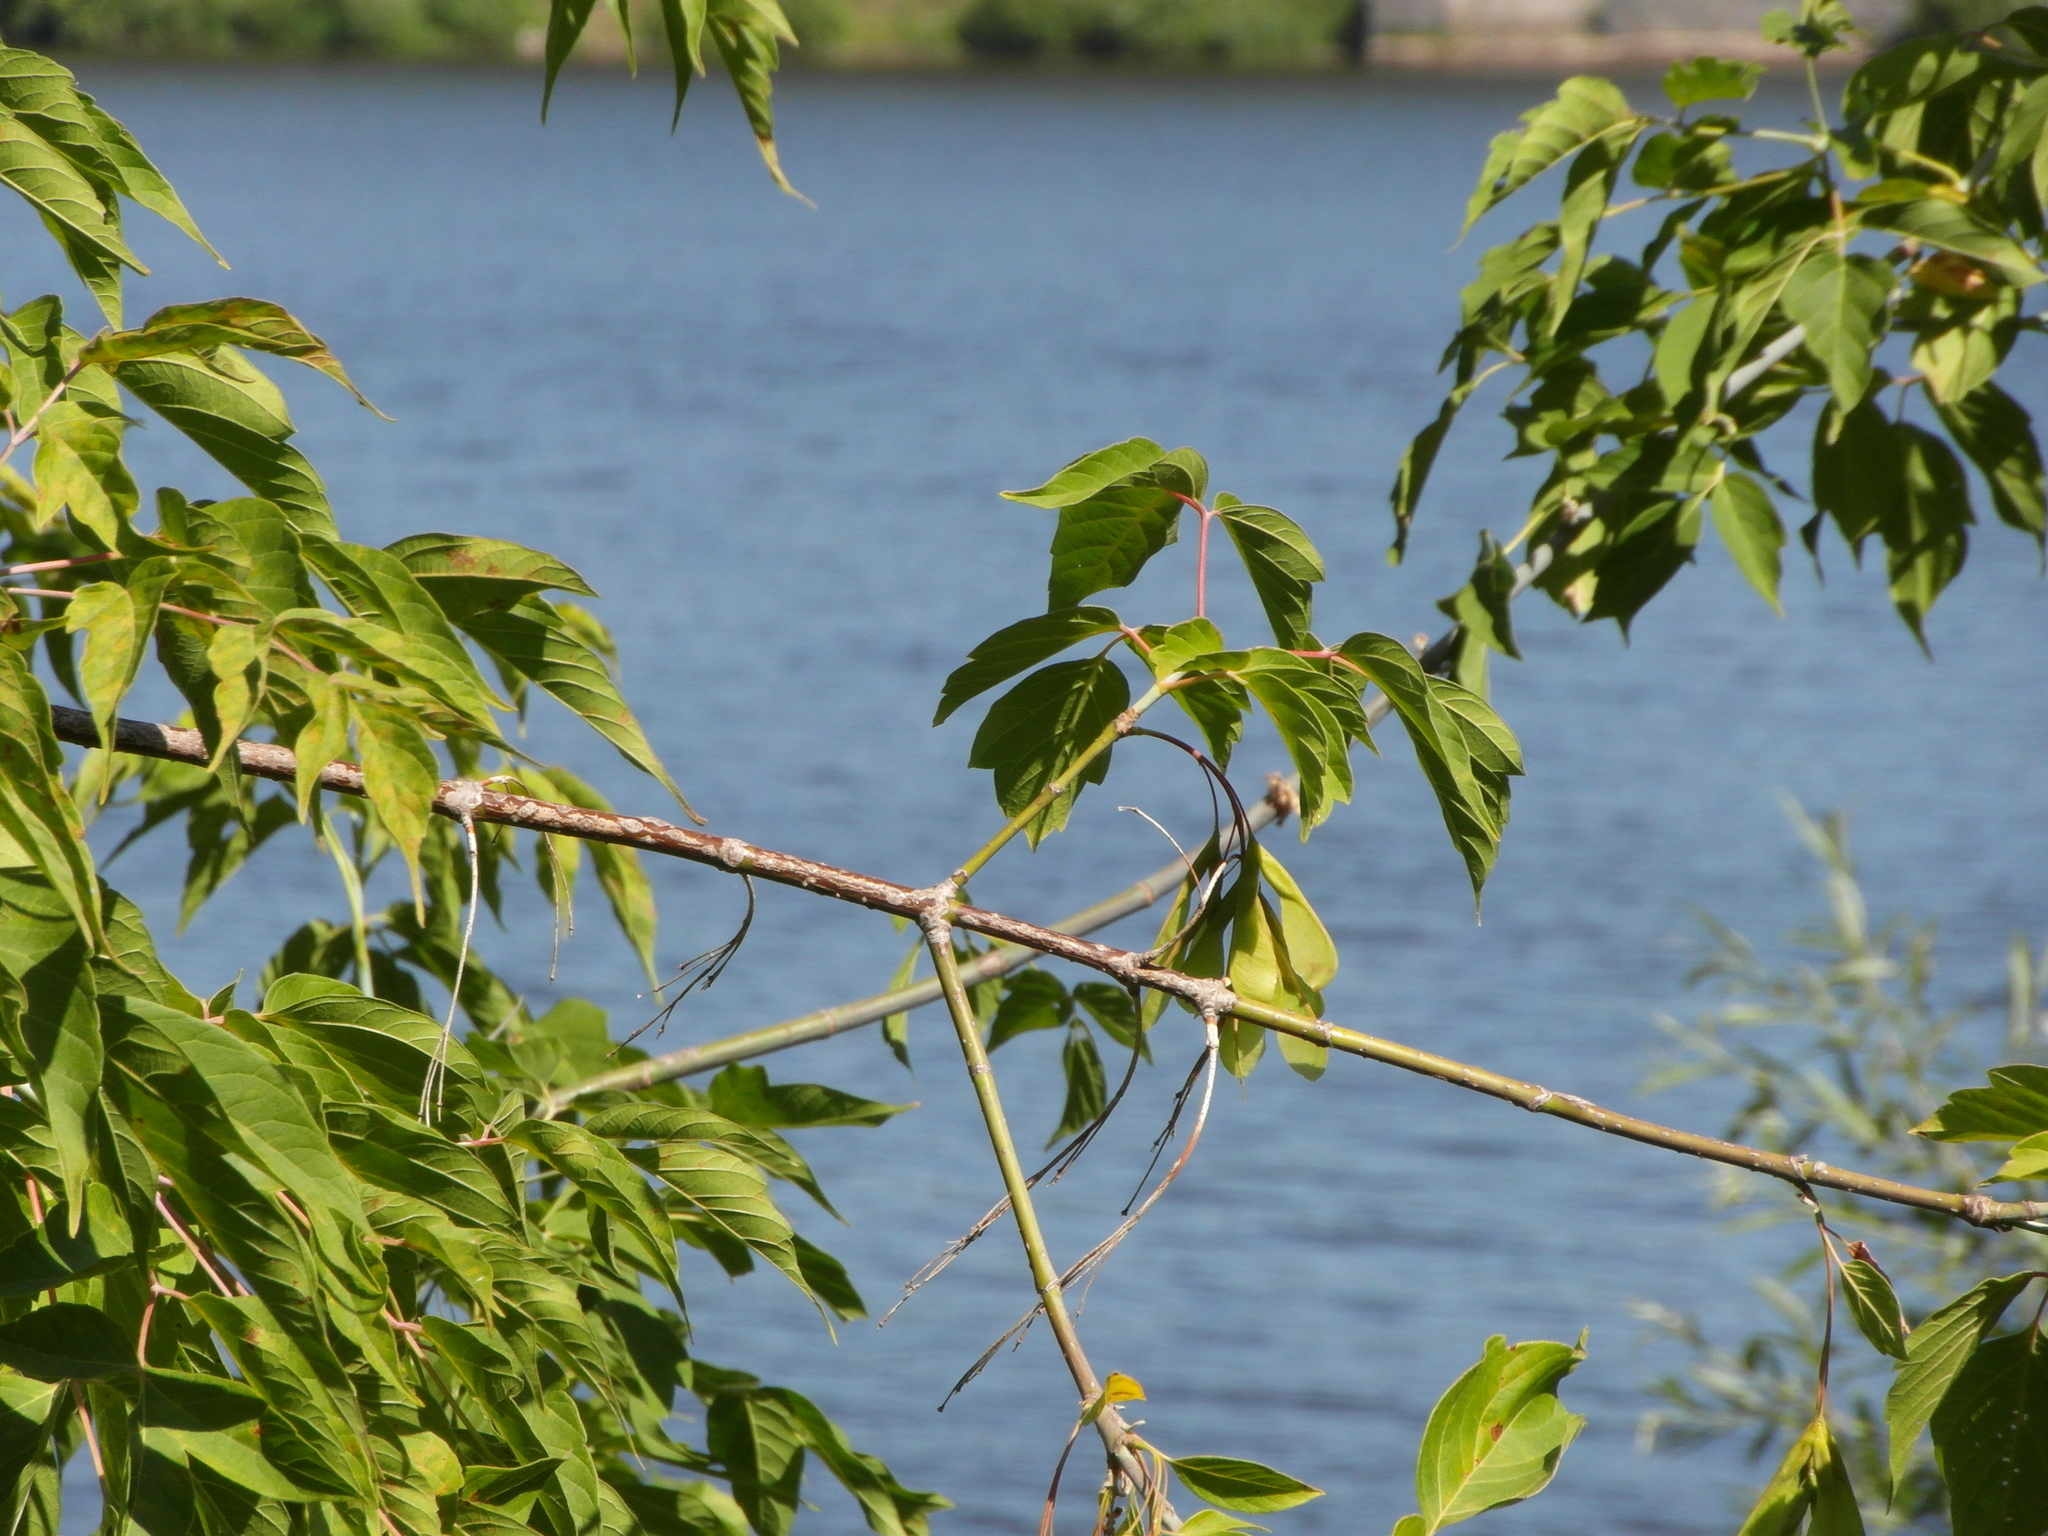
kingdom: Plantae
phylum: Tracheophyta
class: Magnoliopsida
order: Sapindales
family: Sapindaceae
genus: Acer
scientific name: Acer negundo
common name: Ashleaf maple
